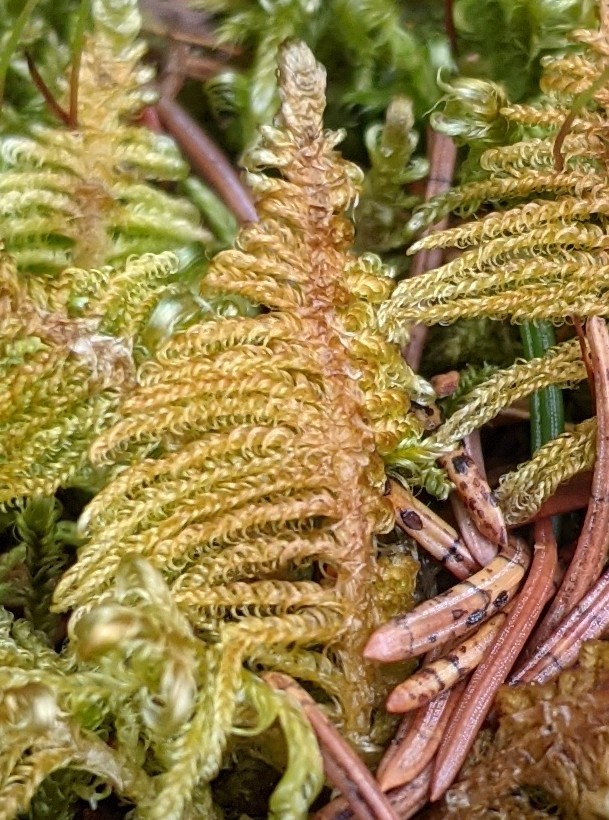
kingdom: Plantae
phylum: Bryophyta
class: Bryopsida
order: Hypnales
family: Pylaisiaceae
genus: Ptilium
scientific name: Ptilium crista-castrensis
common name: Knight's plume moss
